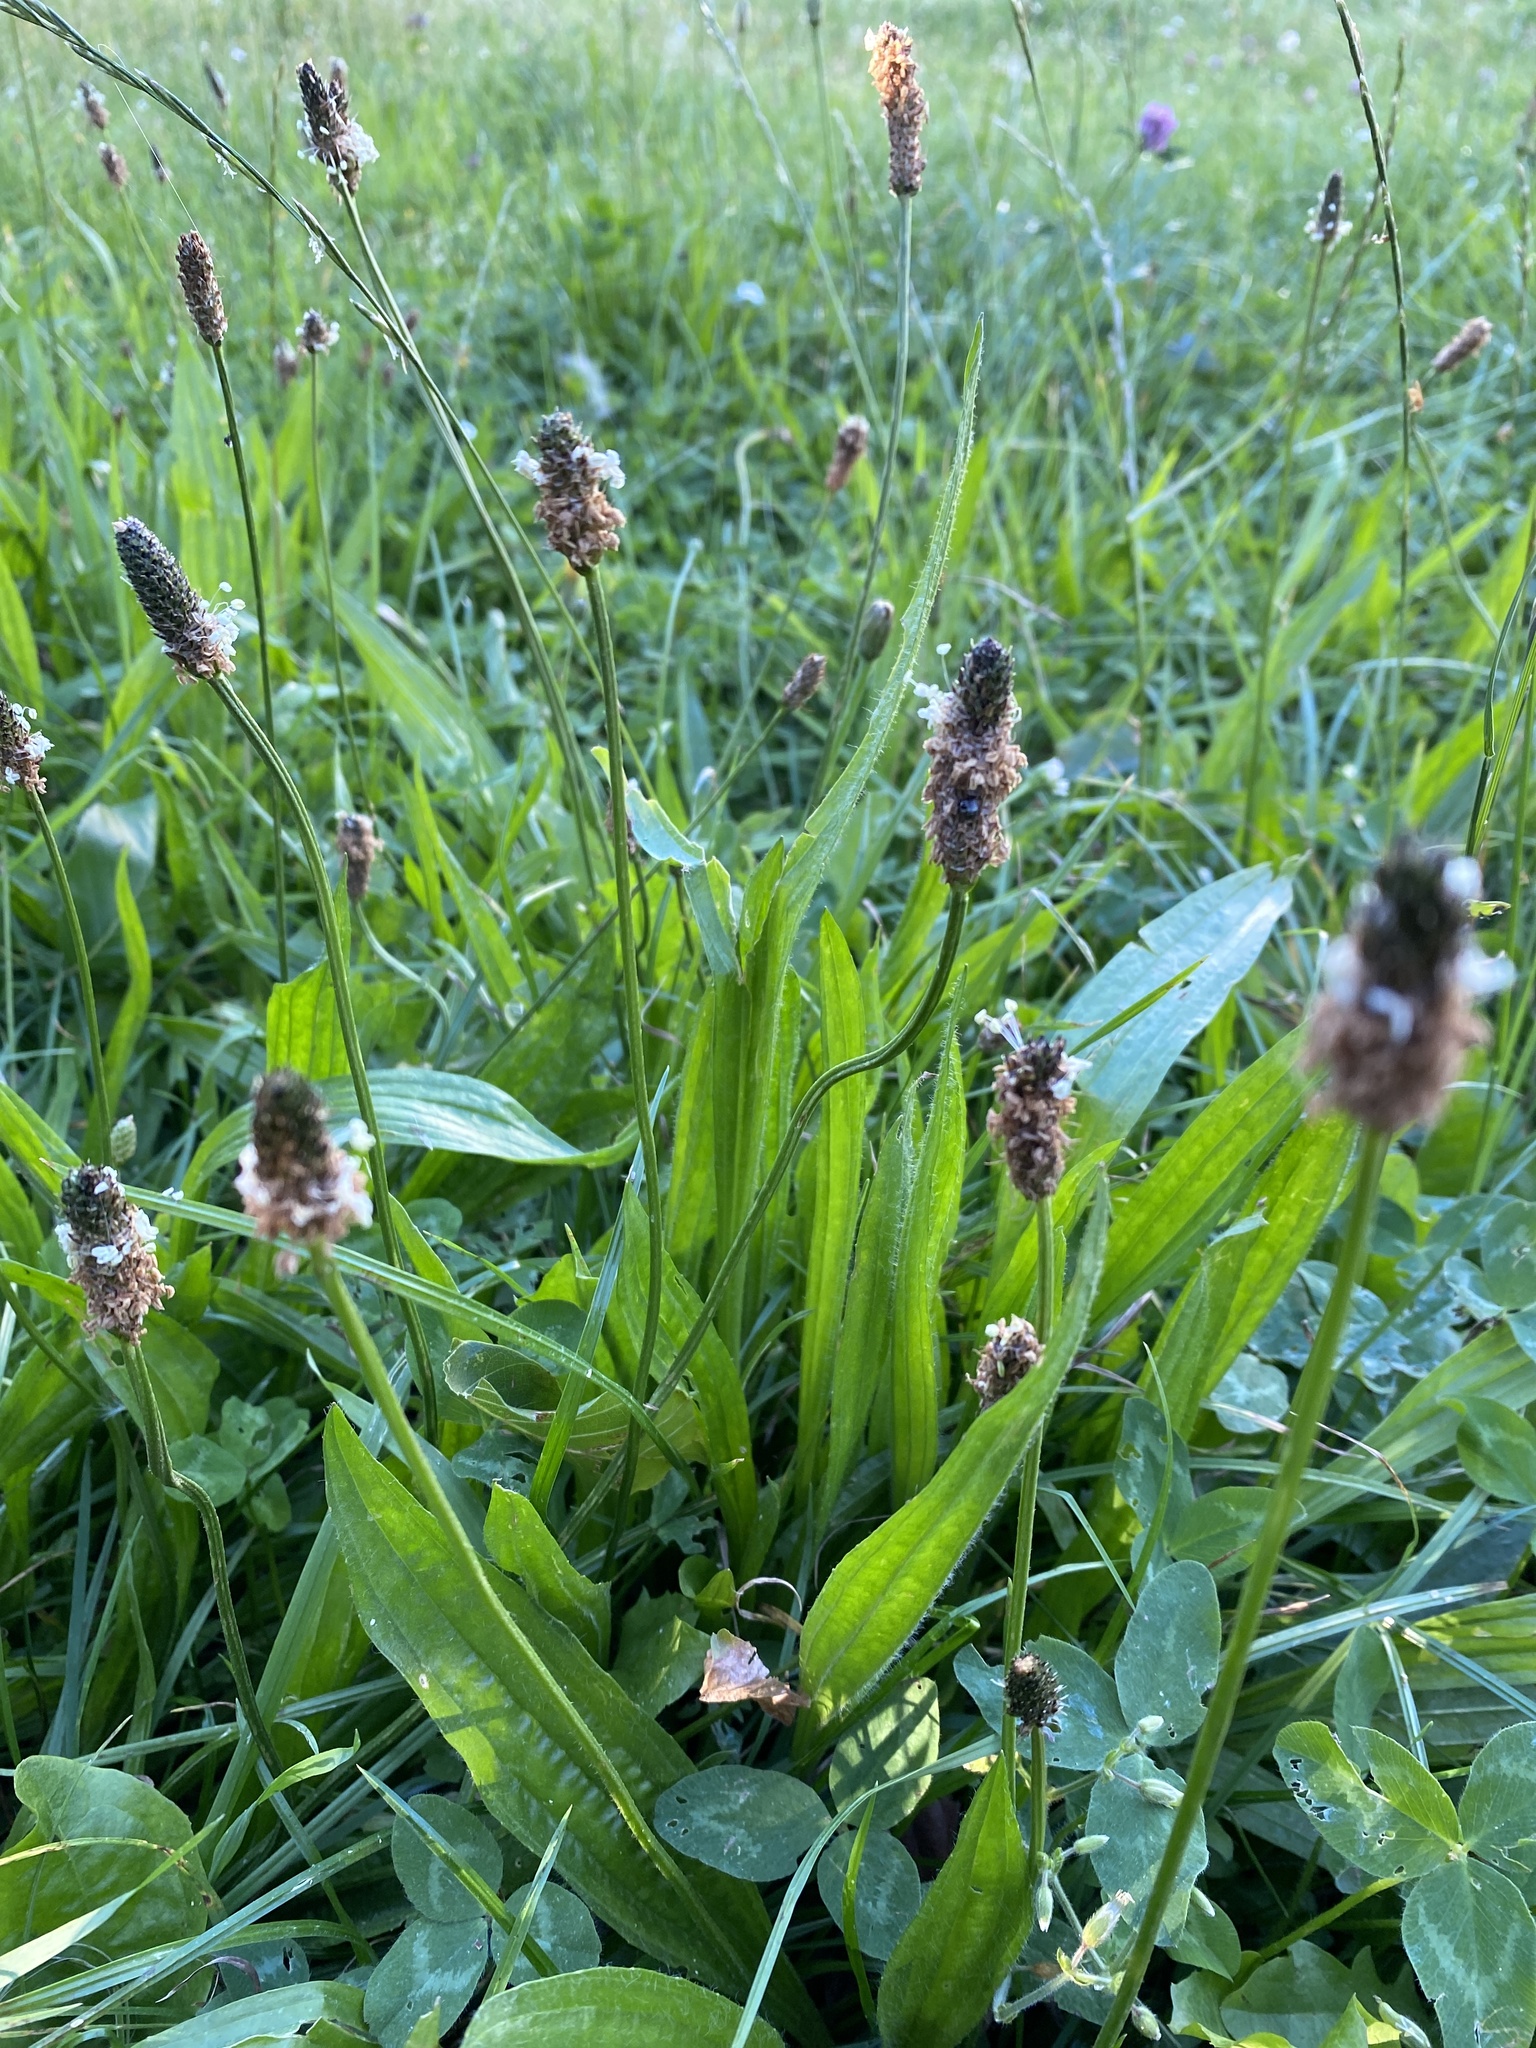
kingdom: Plantae
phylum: Tracheophyta
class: Magnoliopsida
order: Lamiales
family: Plantaginaceae
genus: Plantago
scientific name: Plantago lanceolata
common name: Ribwort plantain
